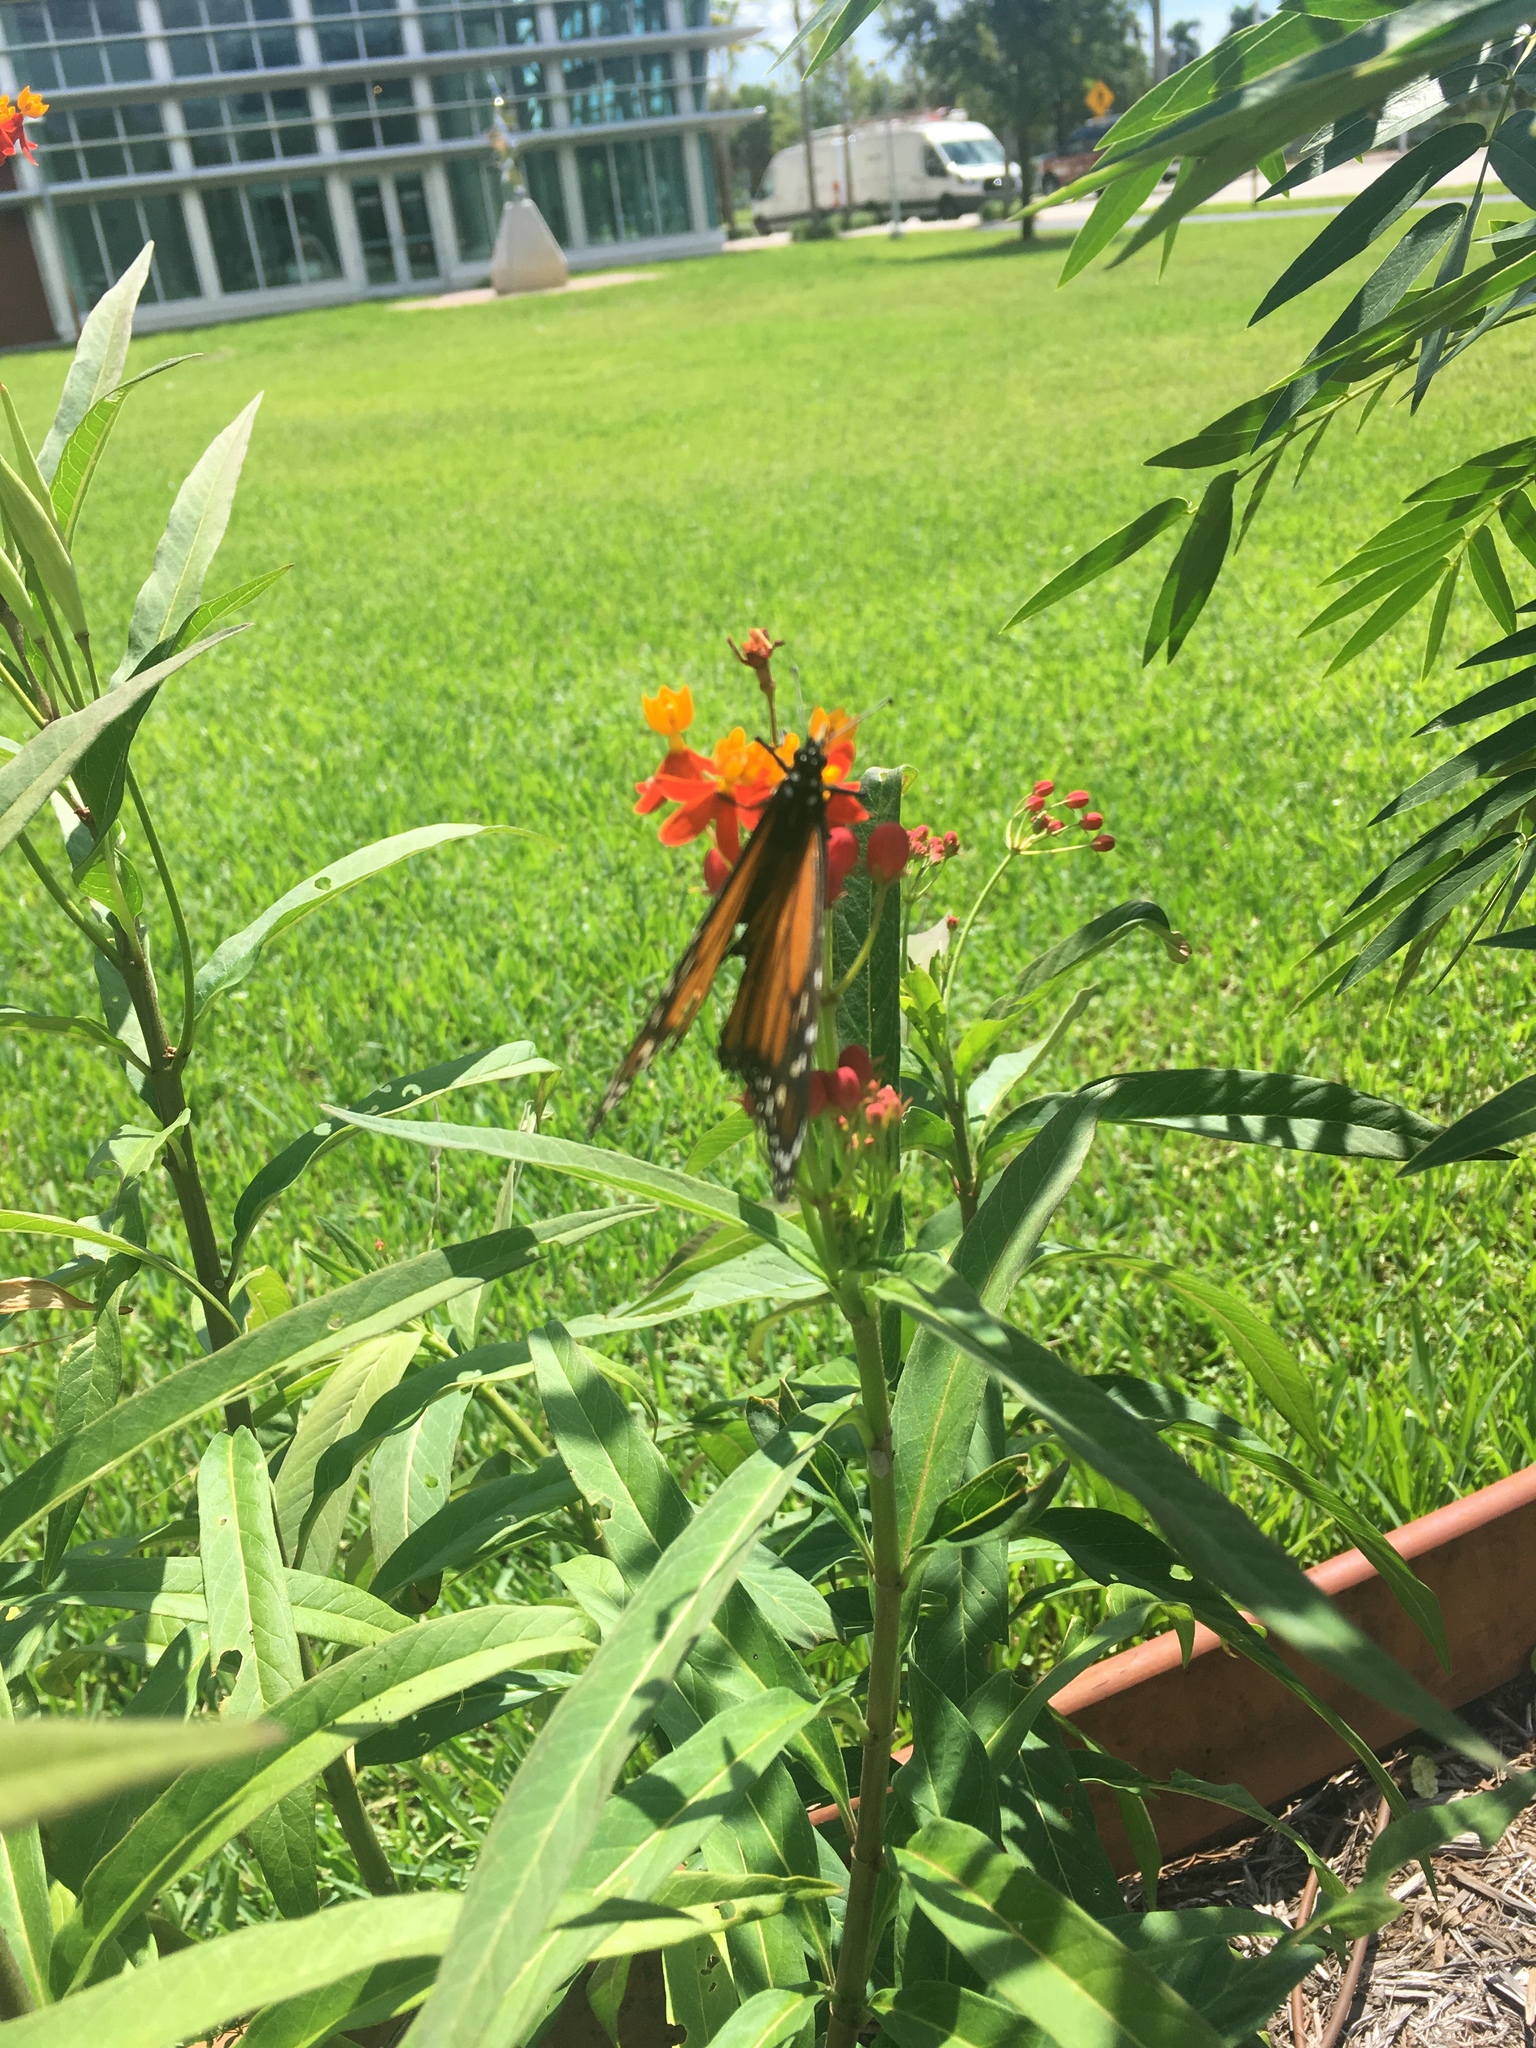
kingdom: Animalia
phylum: Arthropoda
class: Insecta
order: Lepidoptera
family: Nymphalidae
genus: Danaus
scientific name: Danaus plexippus
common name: Monarch
